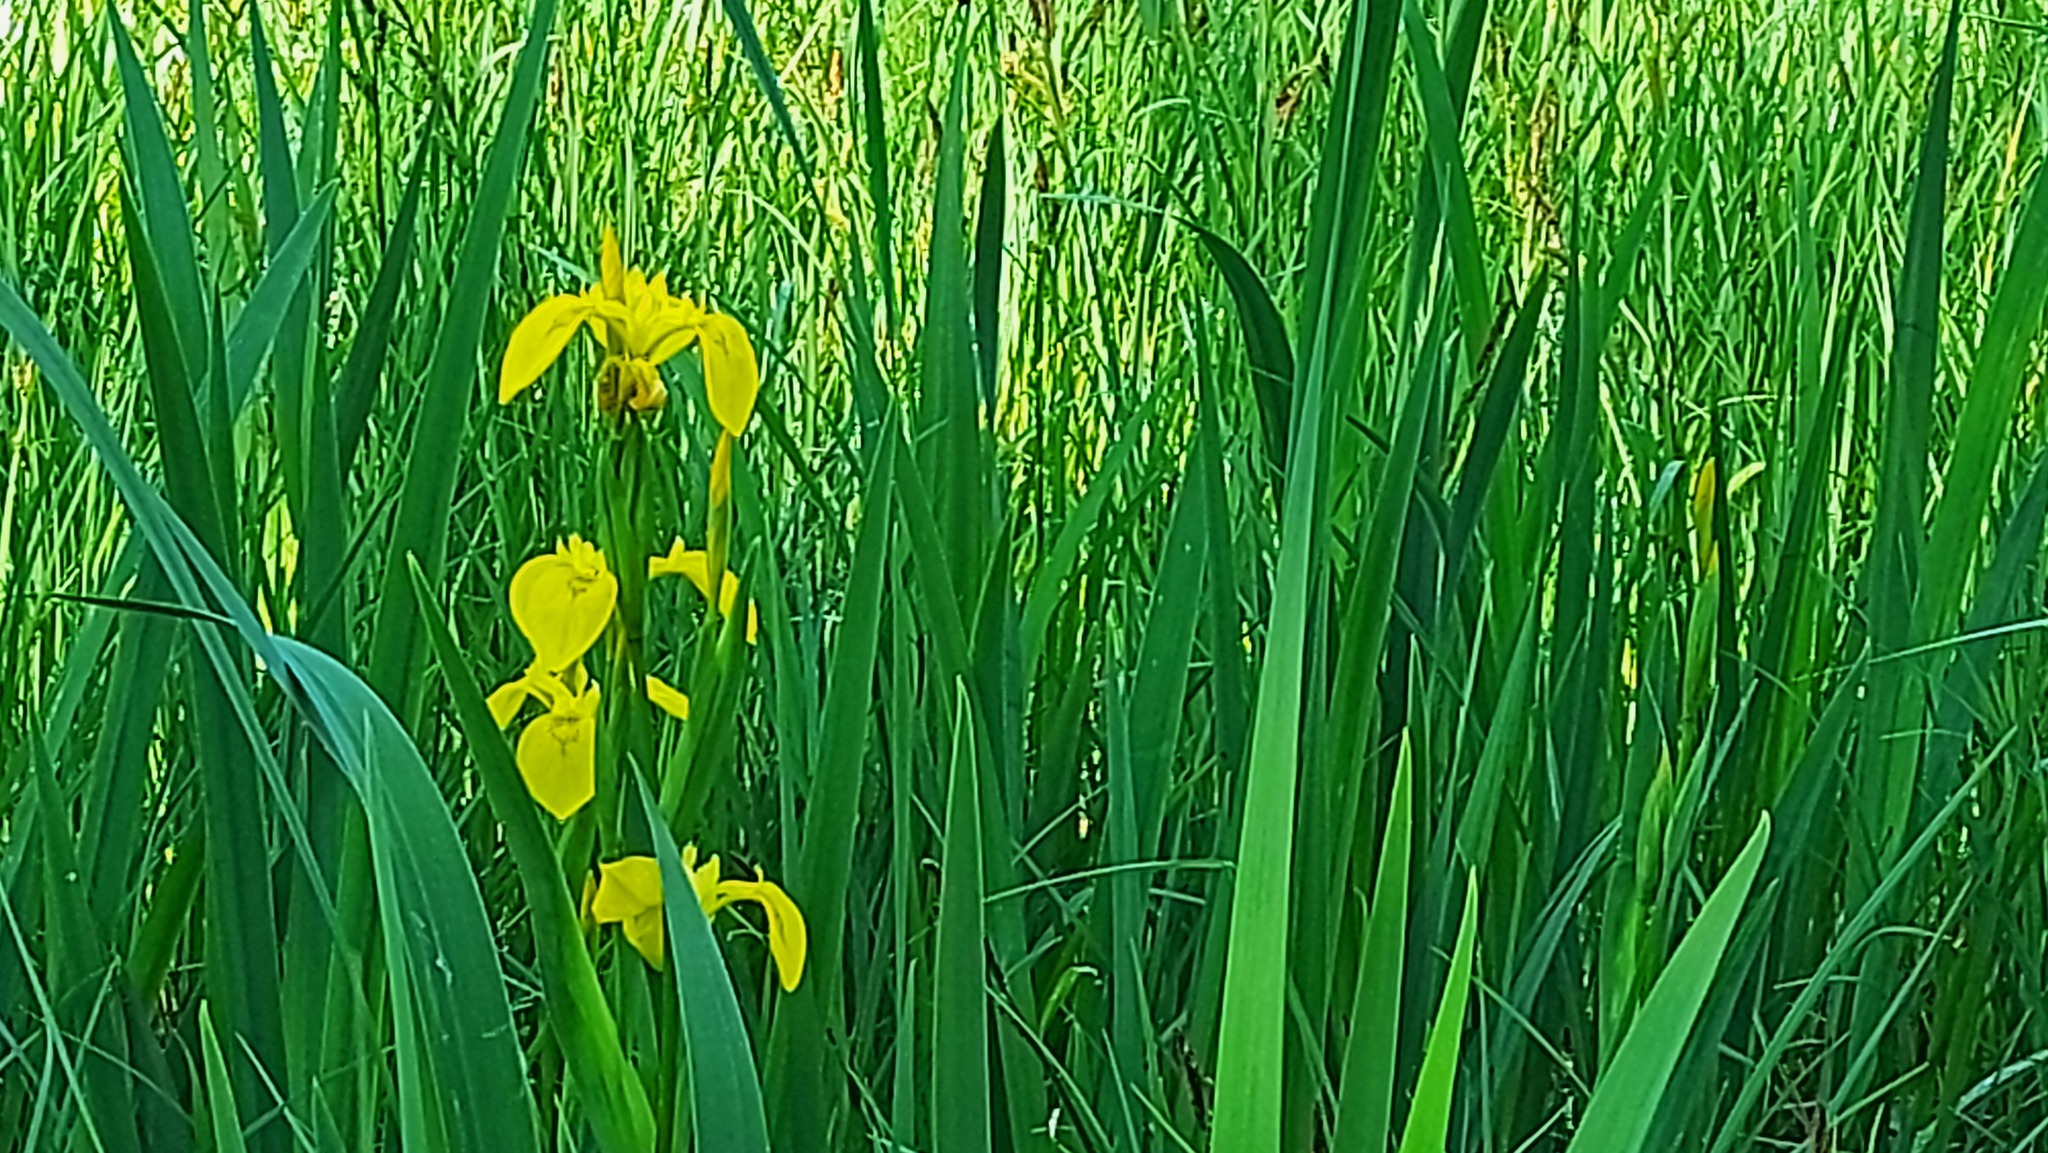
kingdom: Plantae
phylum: Tracheophyta
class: Liliopsida
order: Asparagales
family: Iridaceae
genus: Iris
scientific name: Iris pseudacorus
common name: Yellow flag
